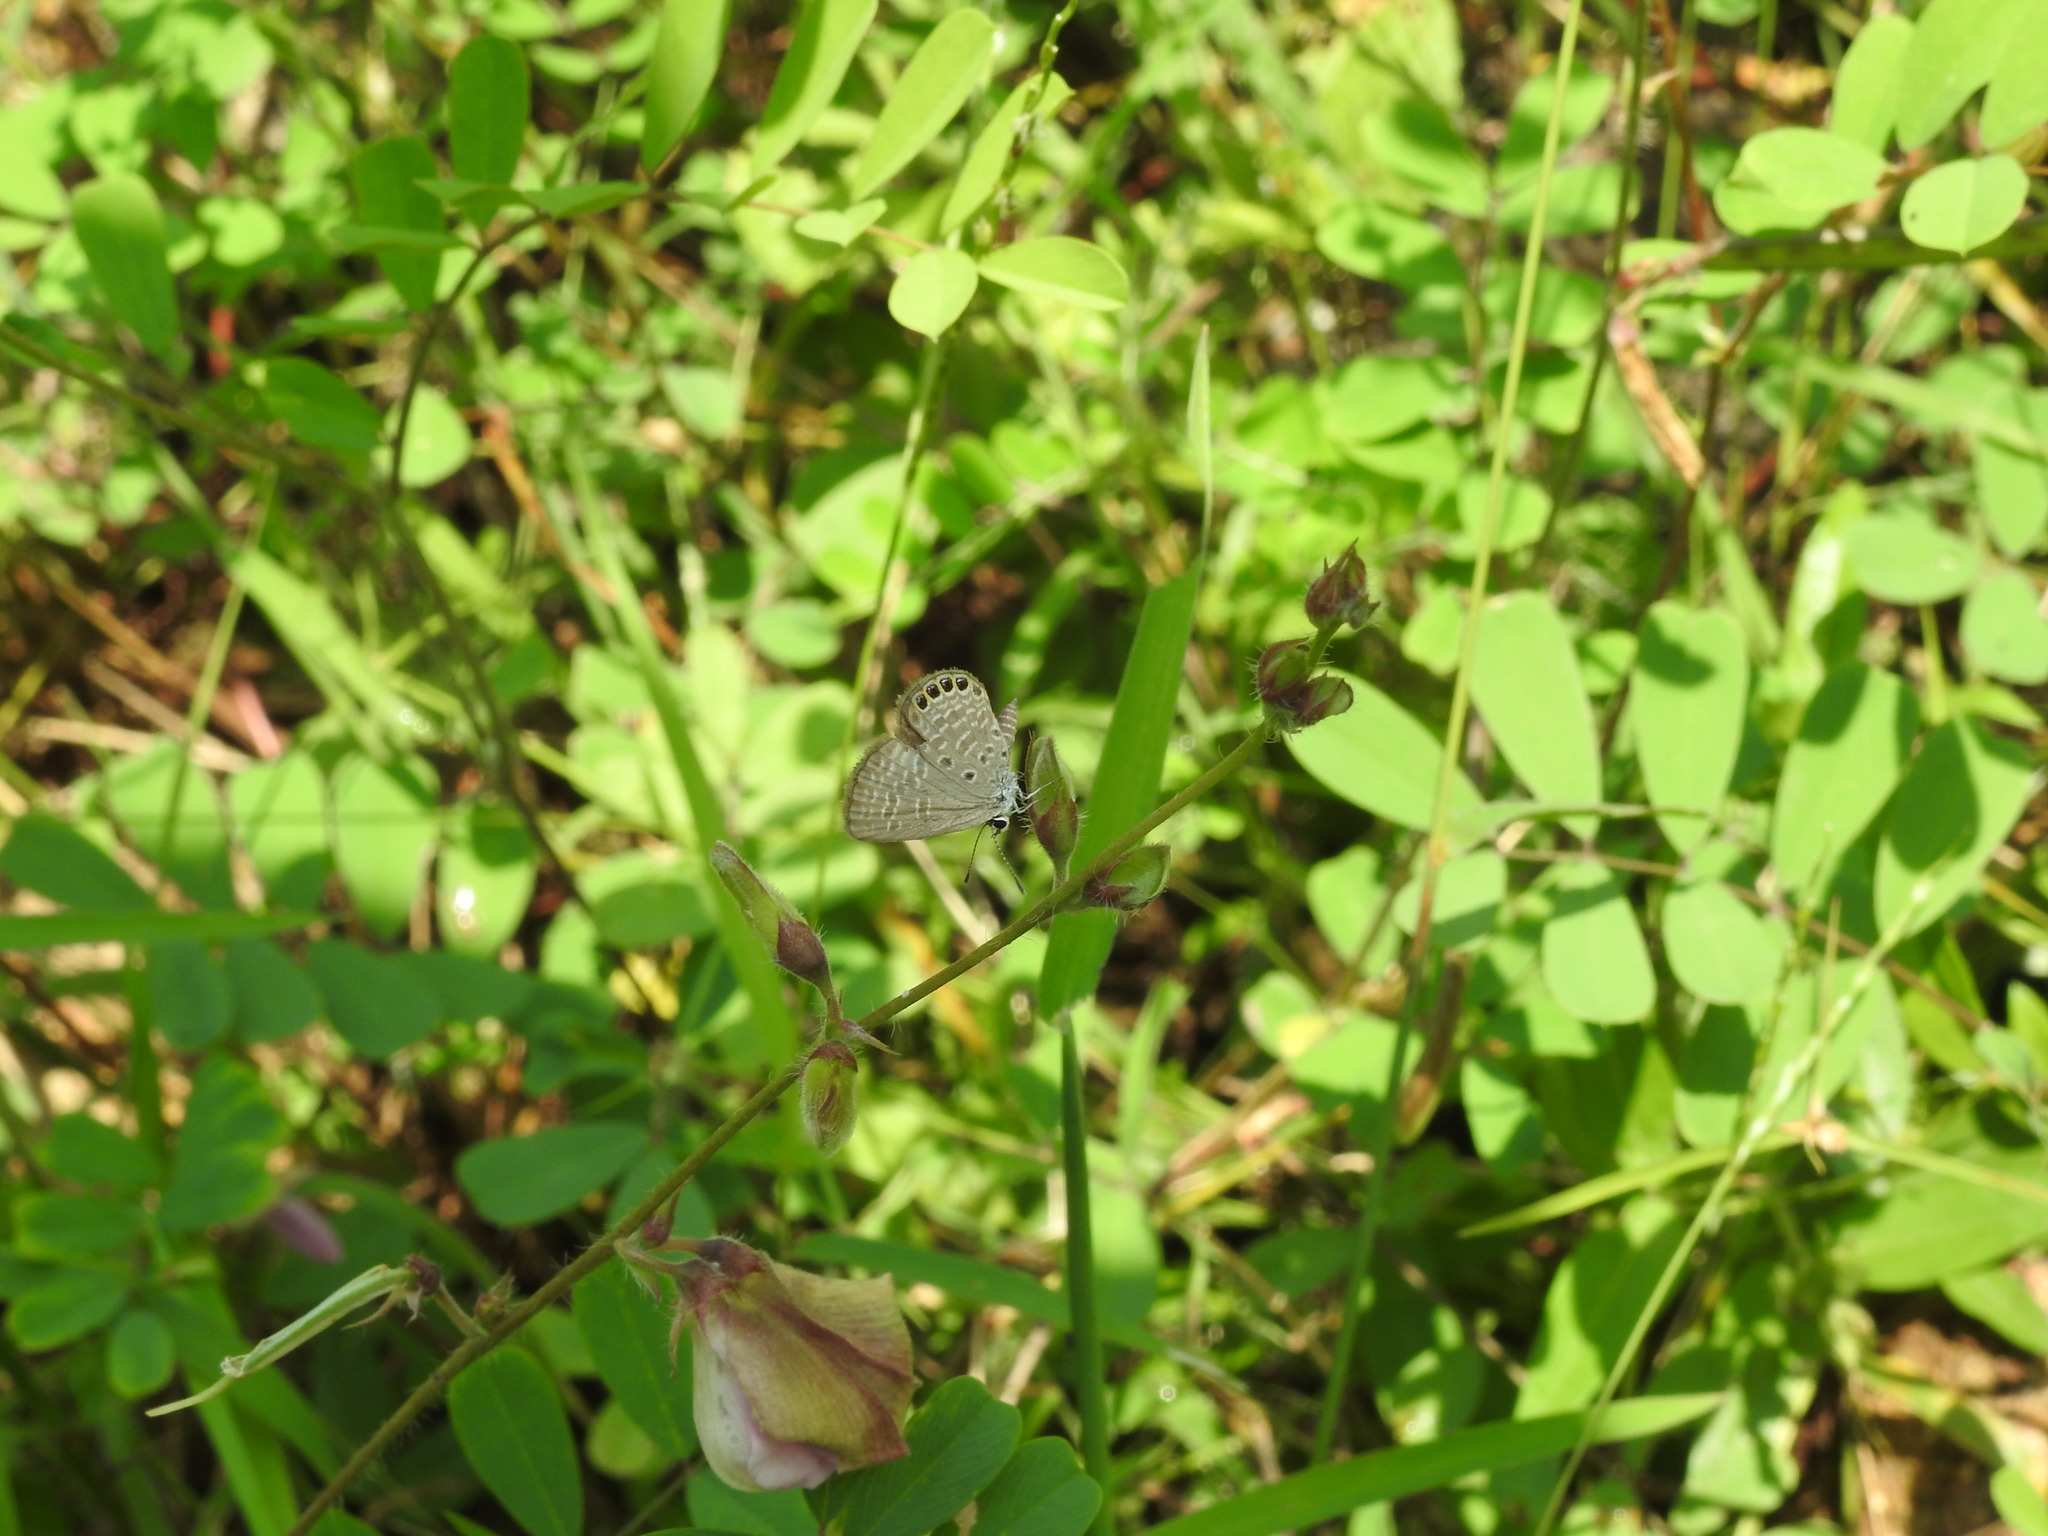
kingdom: Animalia
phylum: Arthropoda
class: Insecta
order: Lepidoptera
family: Lycaenidae
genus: Freyeria
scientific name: Freyeria putli
